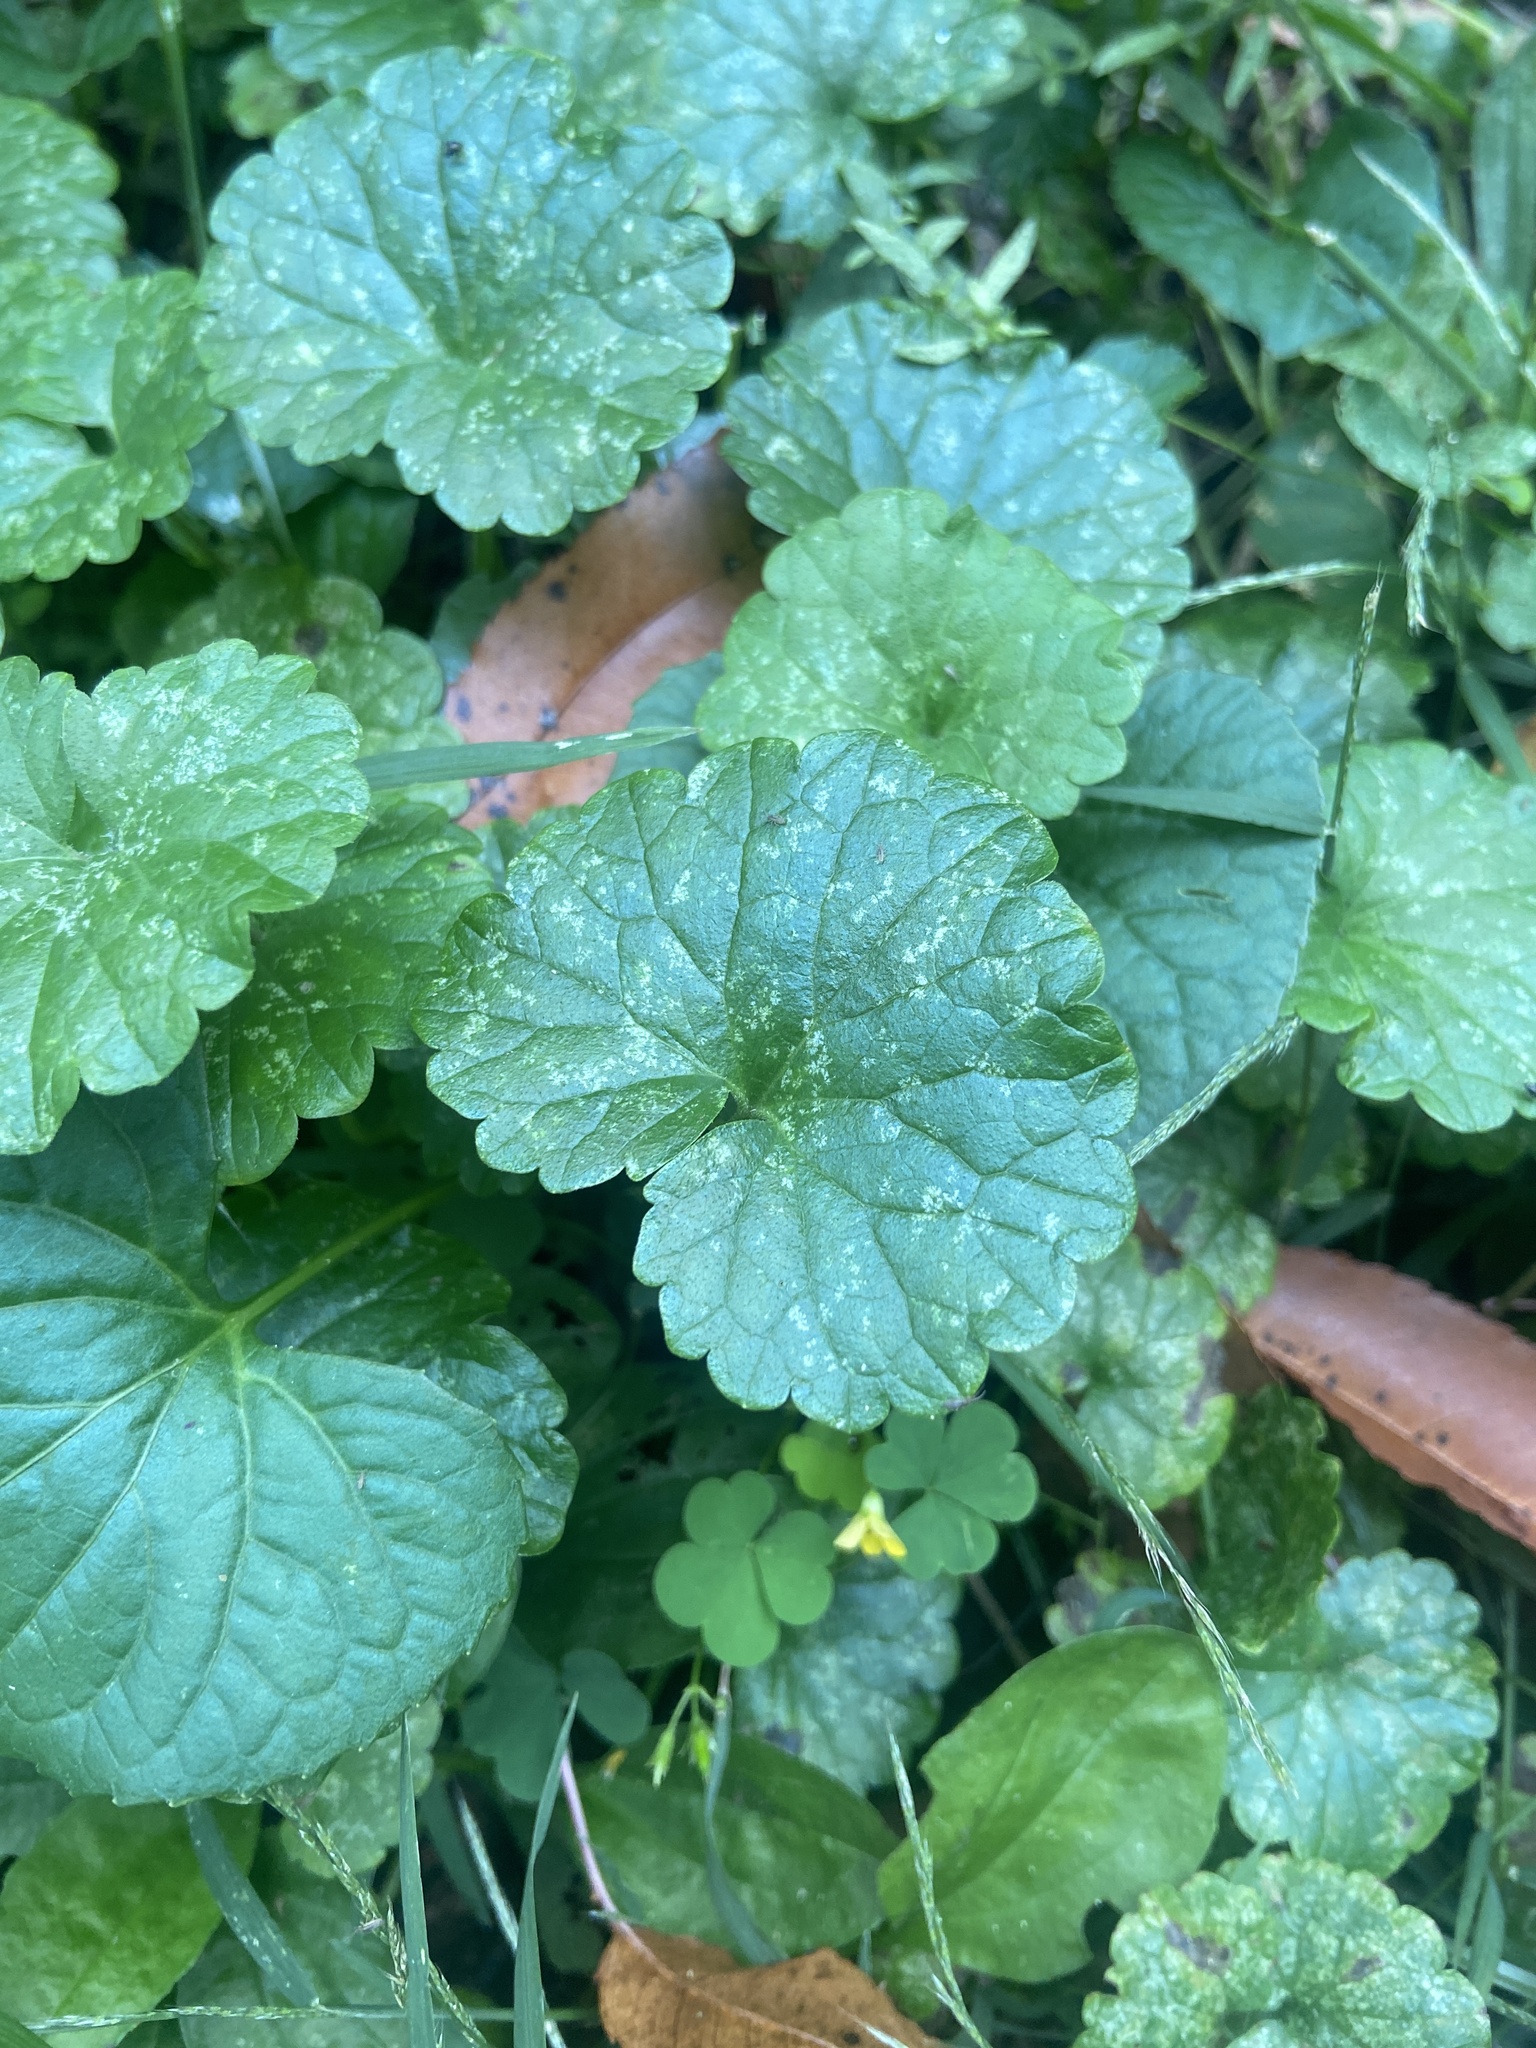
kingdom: Plantae
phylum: Tracheophyta
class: Magnoliopsida
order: Lamiales
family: Lamiaceae
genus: Glechoma
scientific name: Glechoma hederacea
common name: Ground ivy
